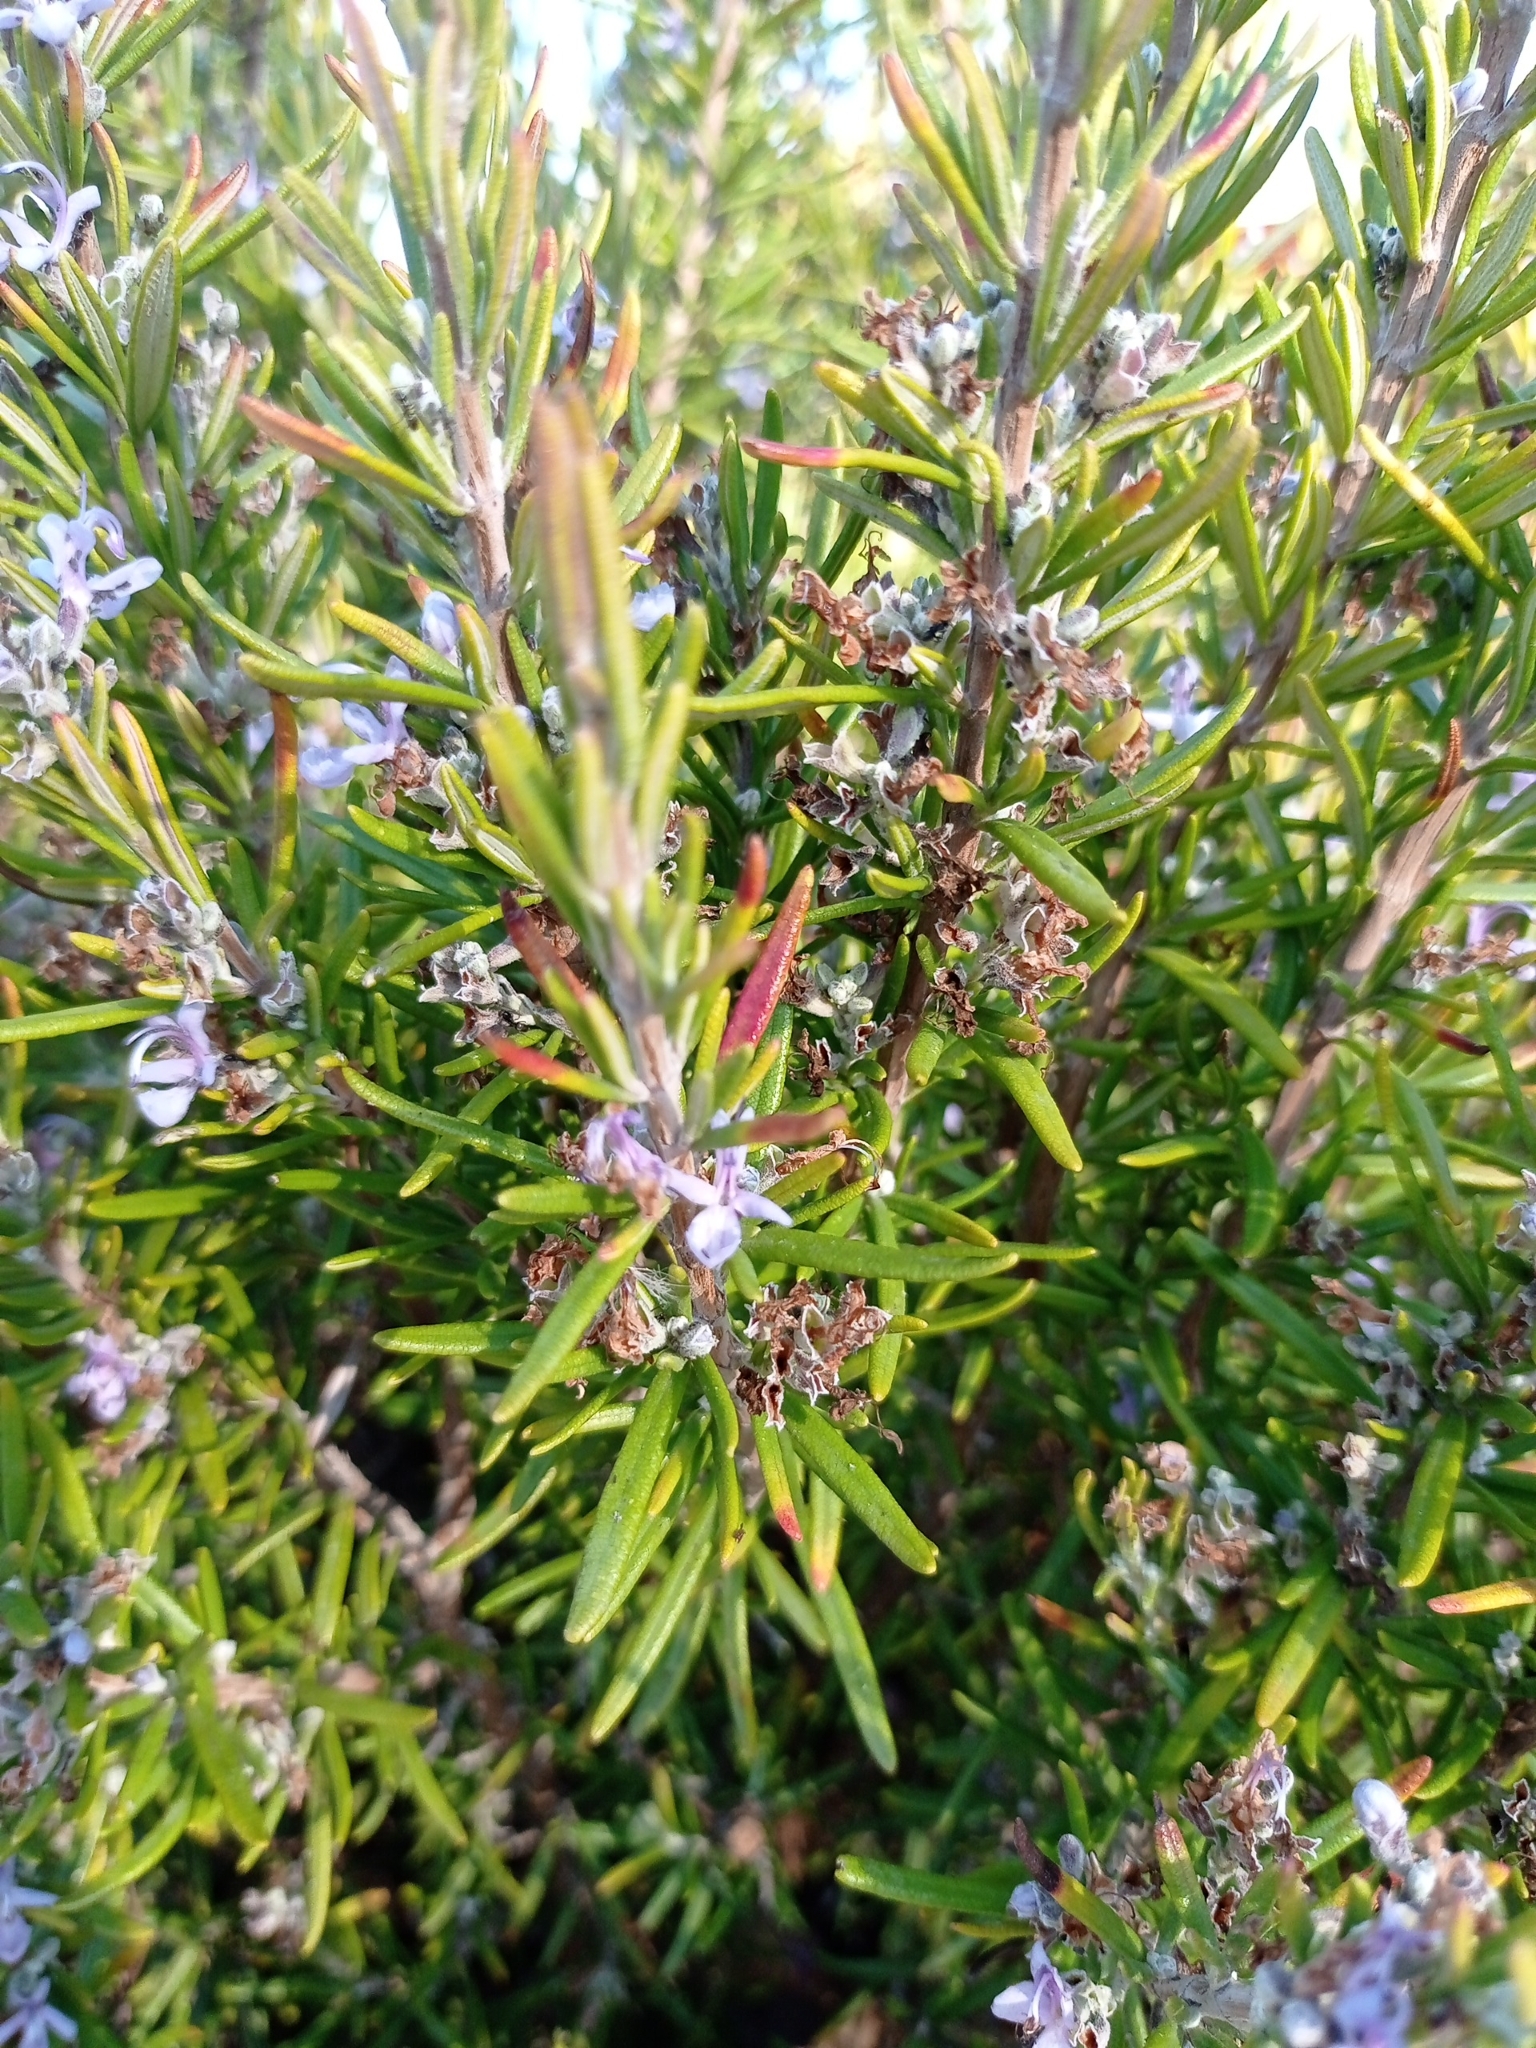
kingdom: Plantae
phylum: Tracheophyta
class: Magnoliopsida
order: Lamiales
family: Lamiaceae
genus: Salvia
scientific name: Salvia rosmarinus
